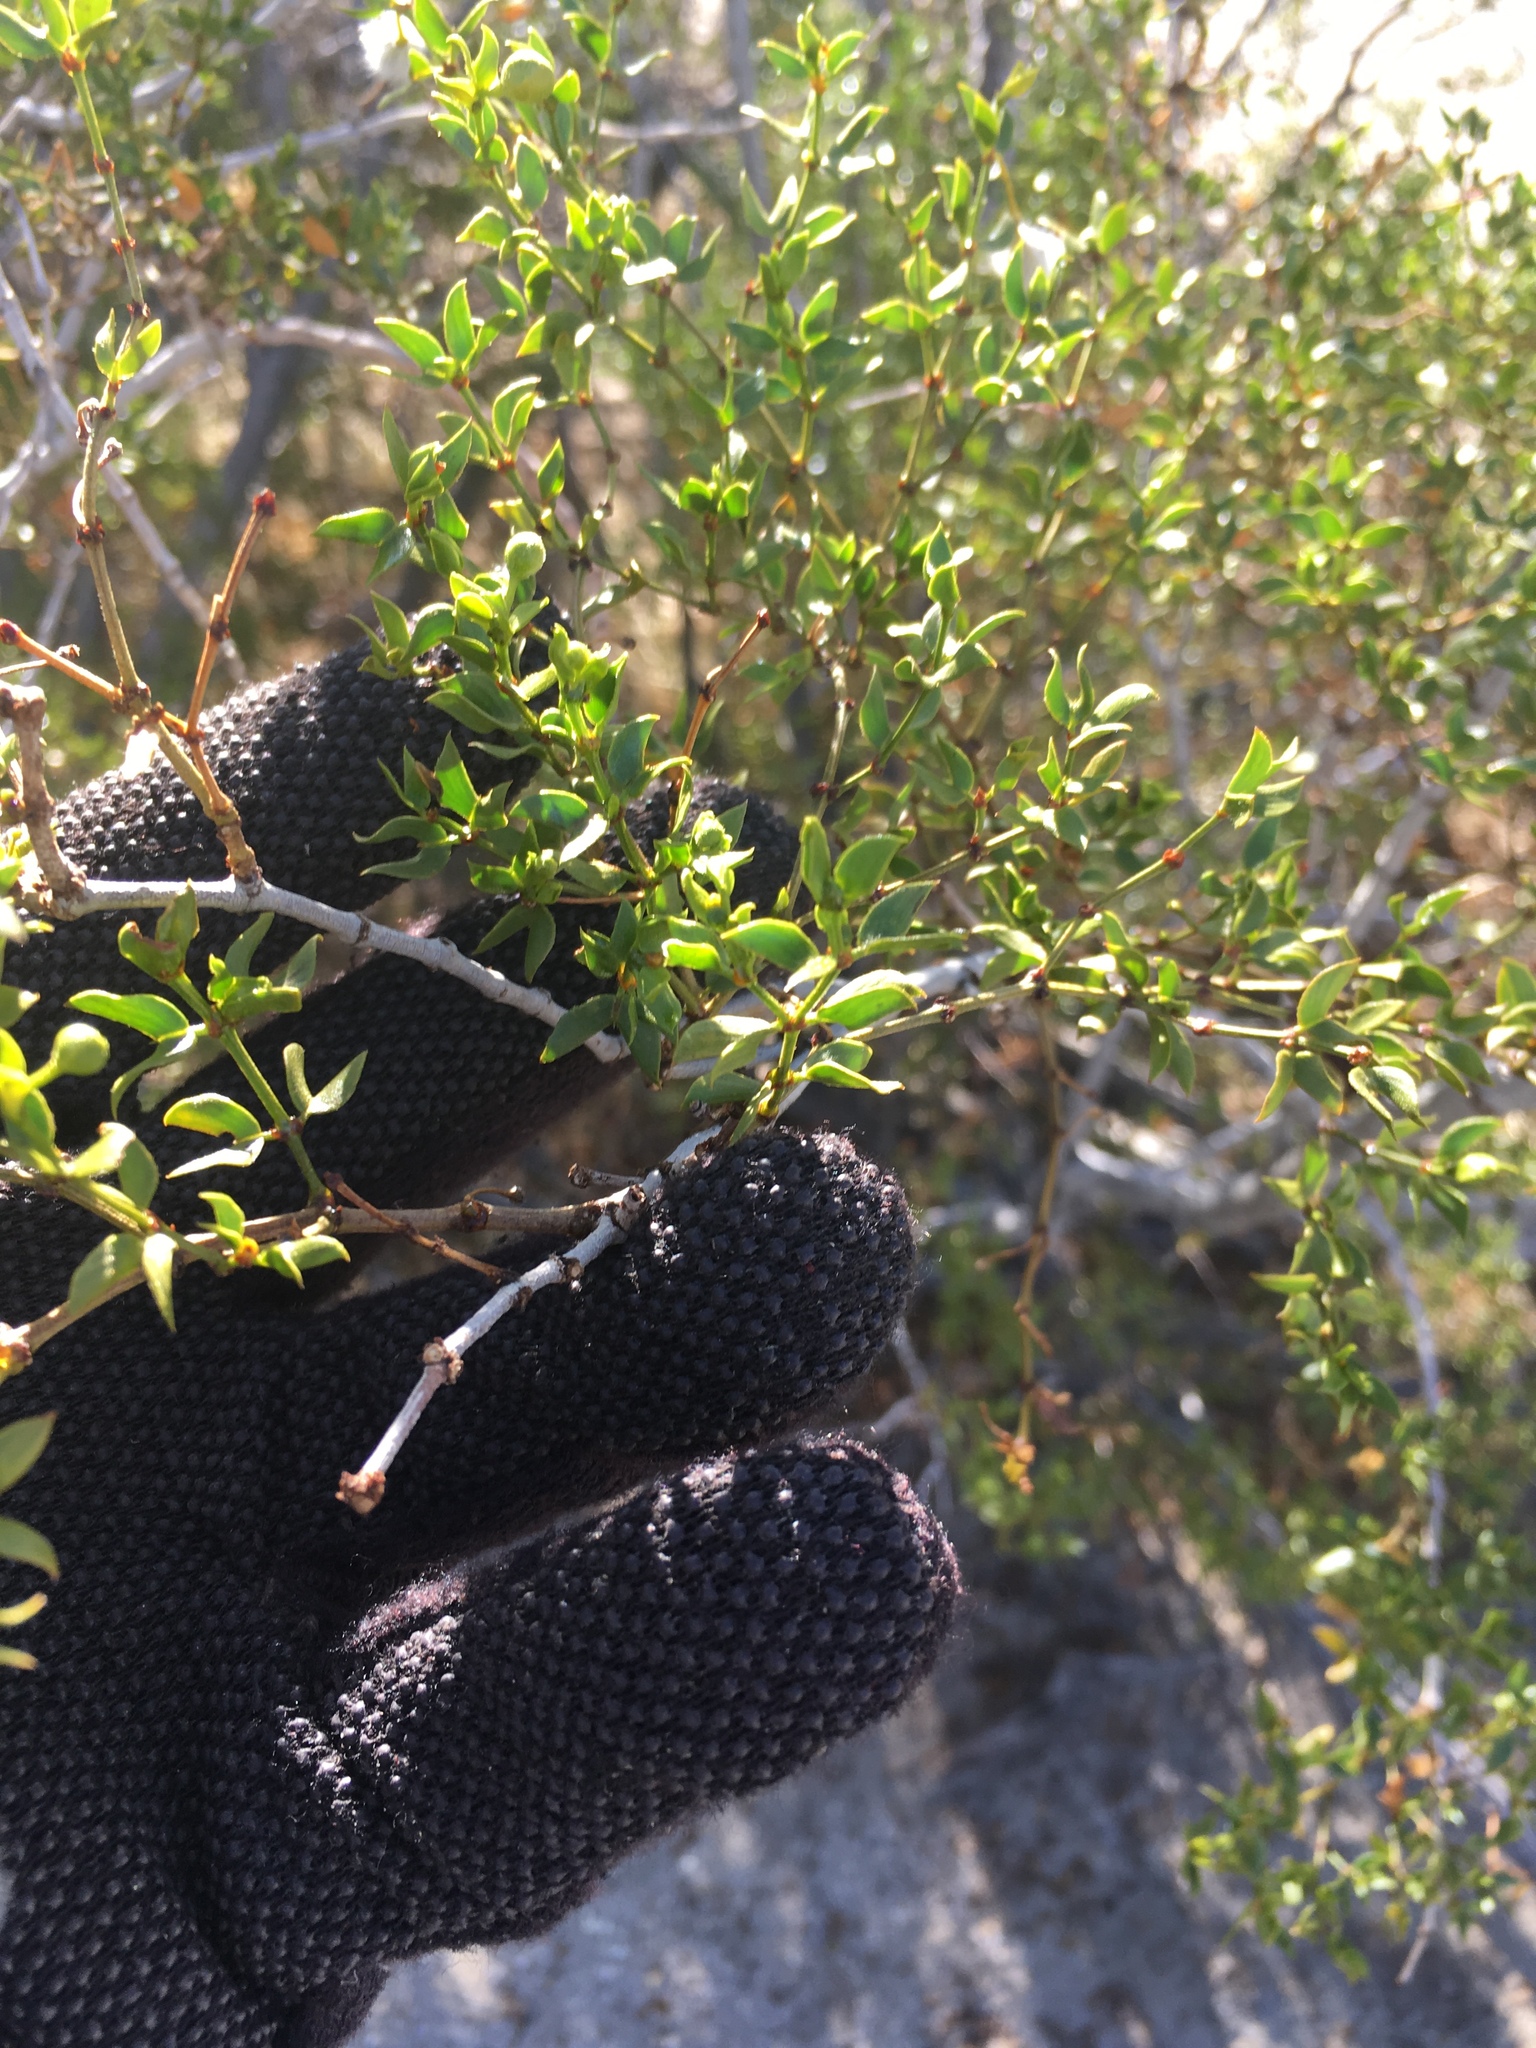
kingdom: Animalia
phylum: Arthropoda
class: Insecta
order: Diptera
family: Cecidomyiidae
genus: Asphondylia
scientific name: Asphondylia auripila
